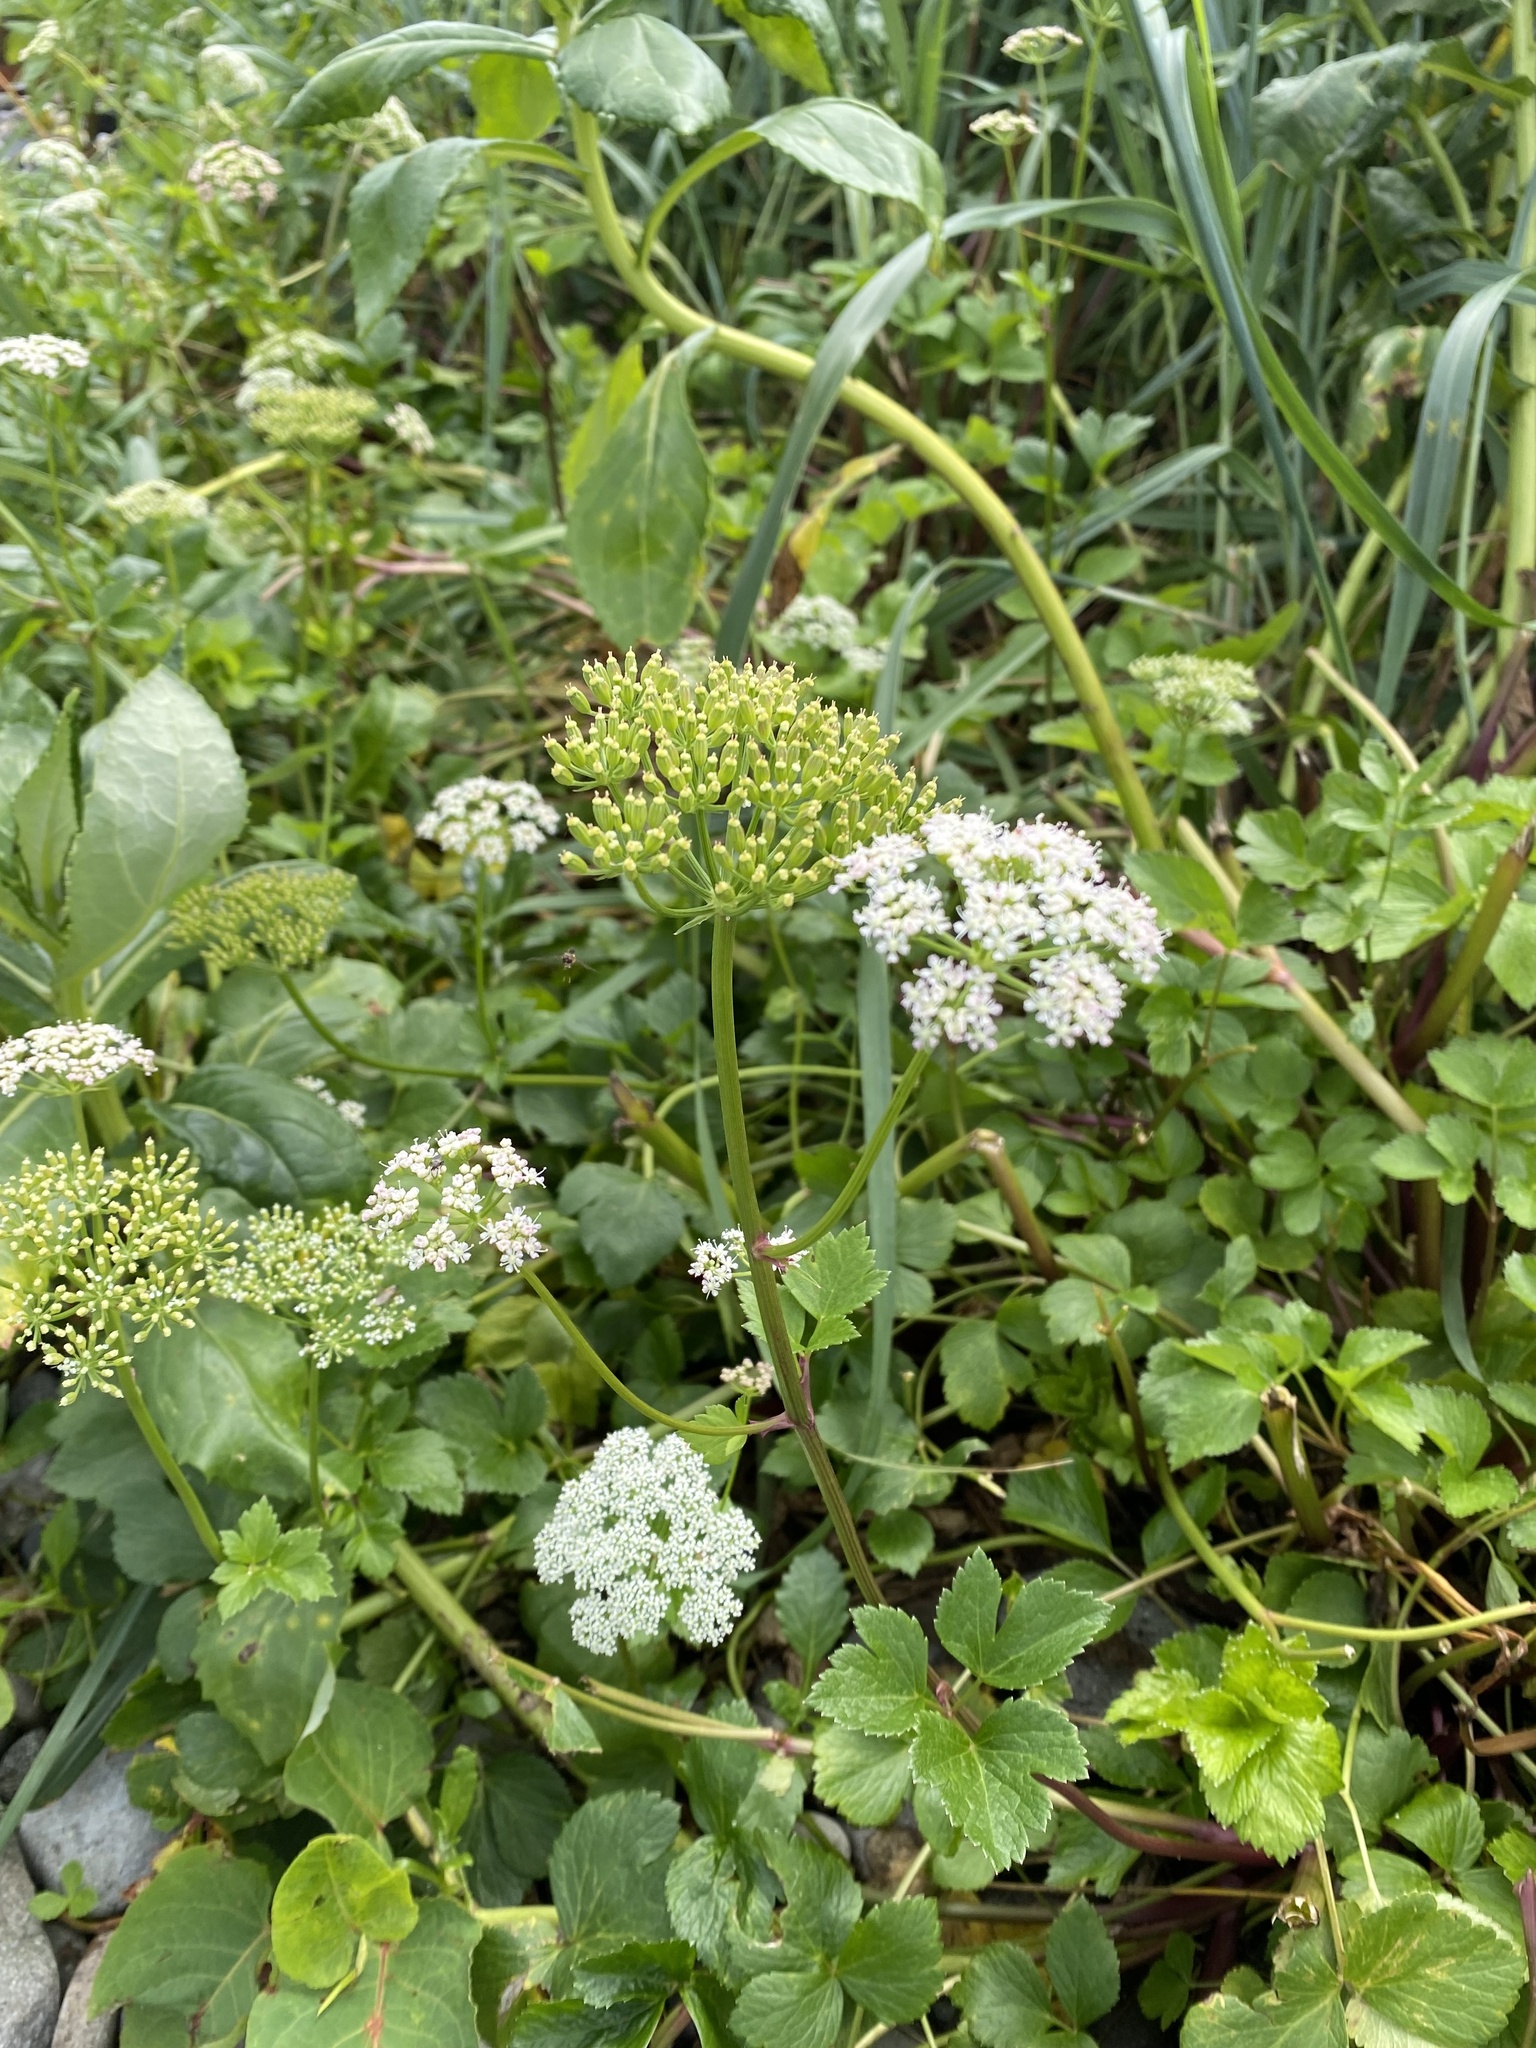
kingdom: Plantae
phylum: Tracheophyta
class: Magnoliopsida
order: Apiales
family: Apiaceae
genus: Ligusticum
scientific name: Ligusticum scothicum
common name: Beach lovage
